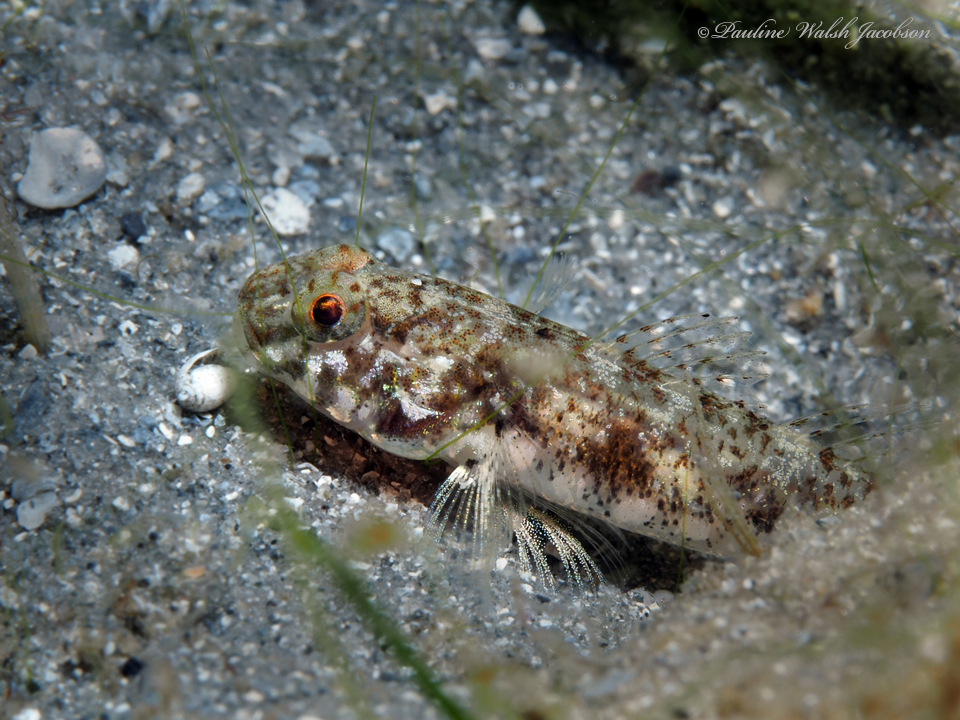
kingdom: Animalia
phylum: Chordata
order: Perciformes
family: Gobiidae
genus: Ctenogobius
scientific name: Ctenogobius stigmaturus
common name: Spottail goby
